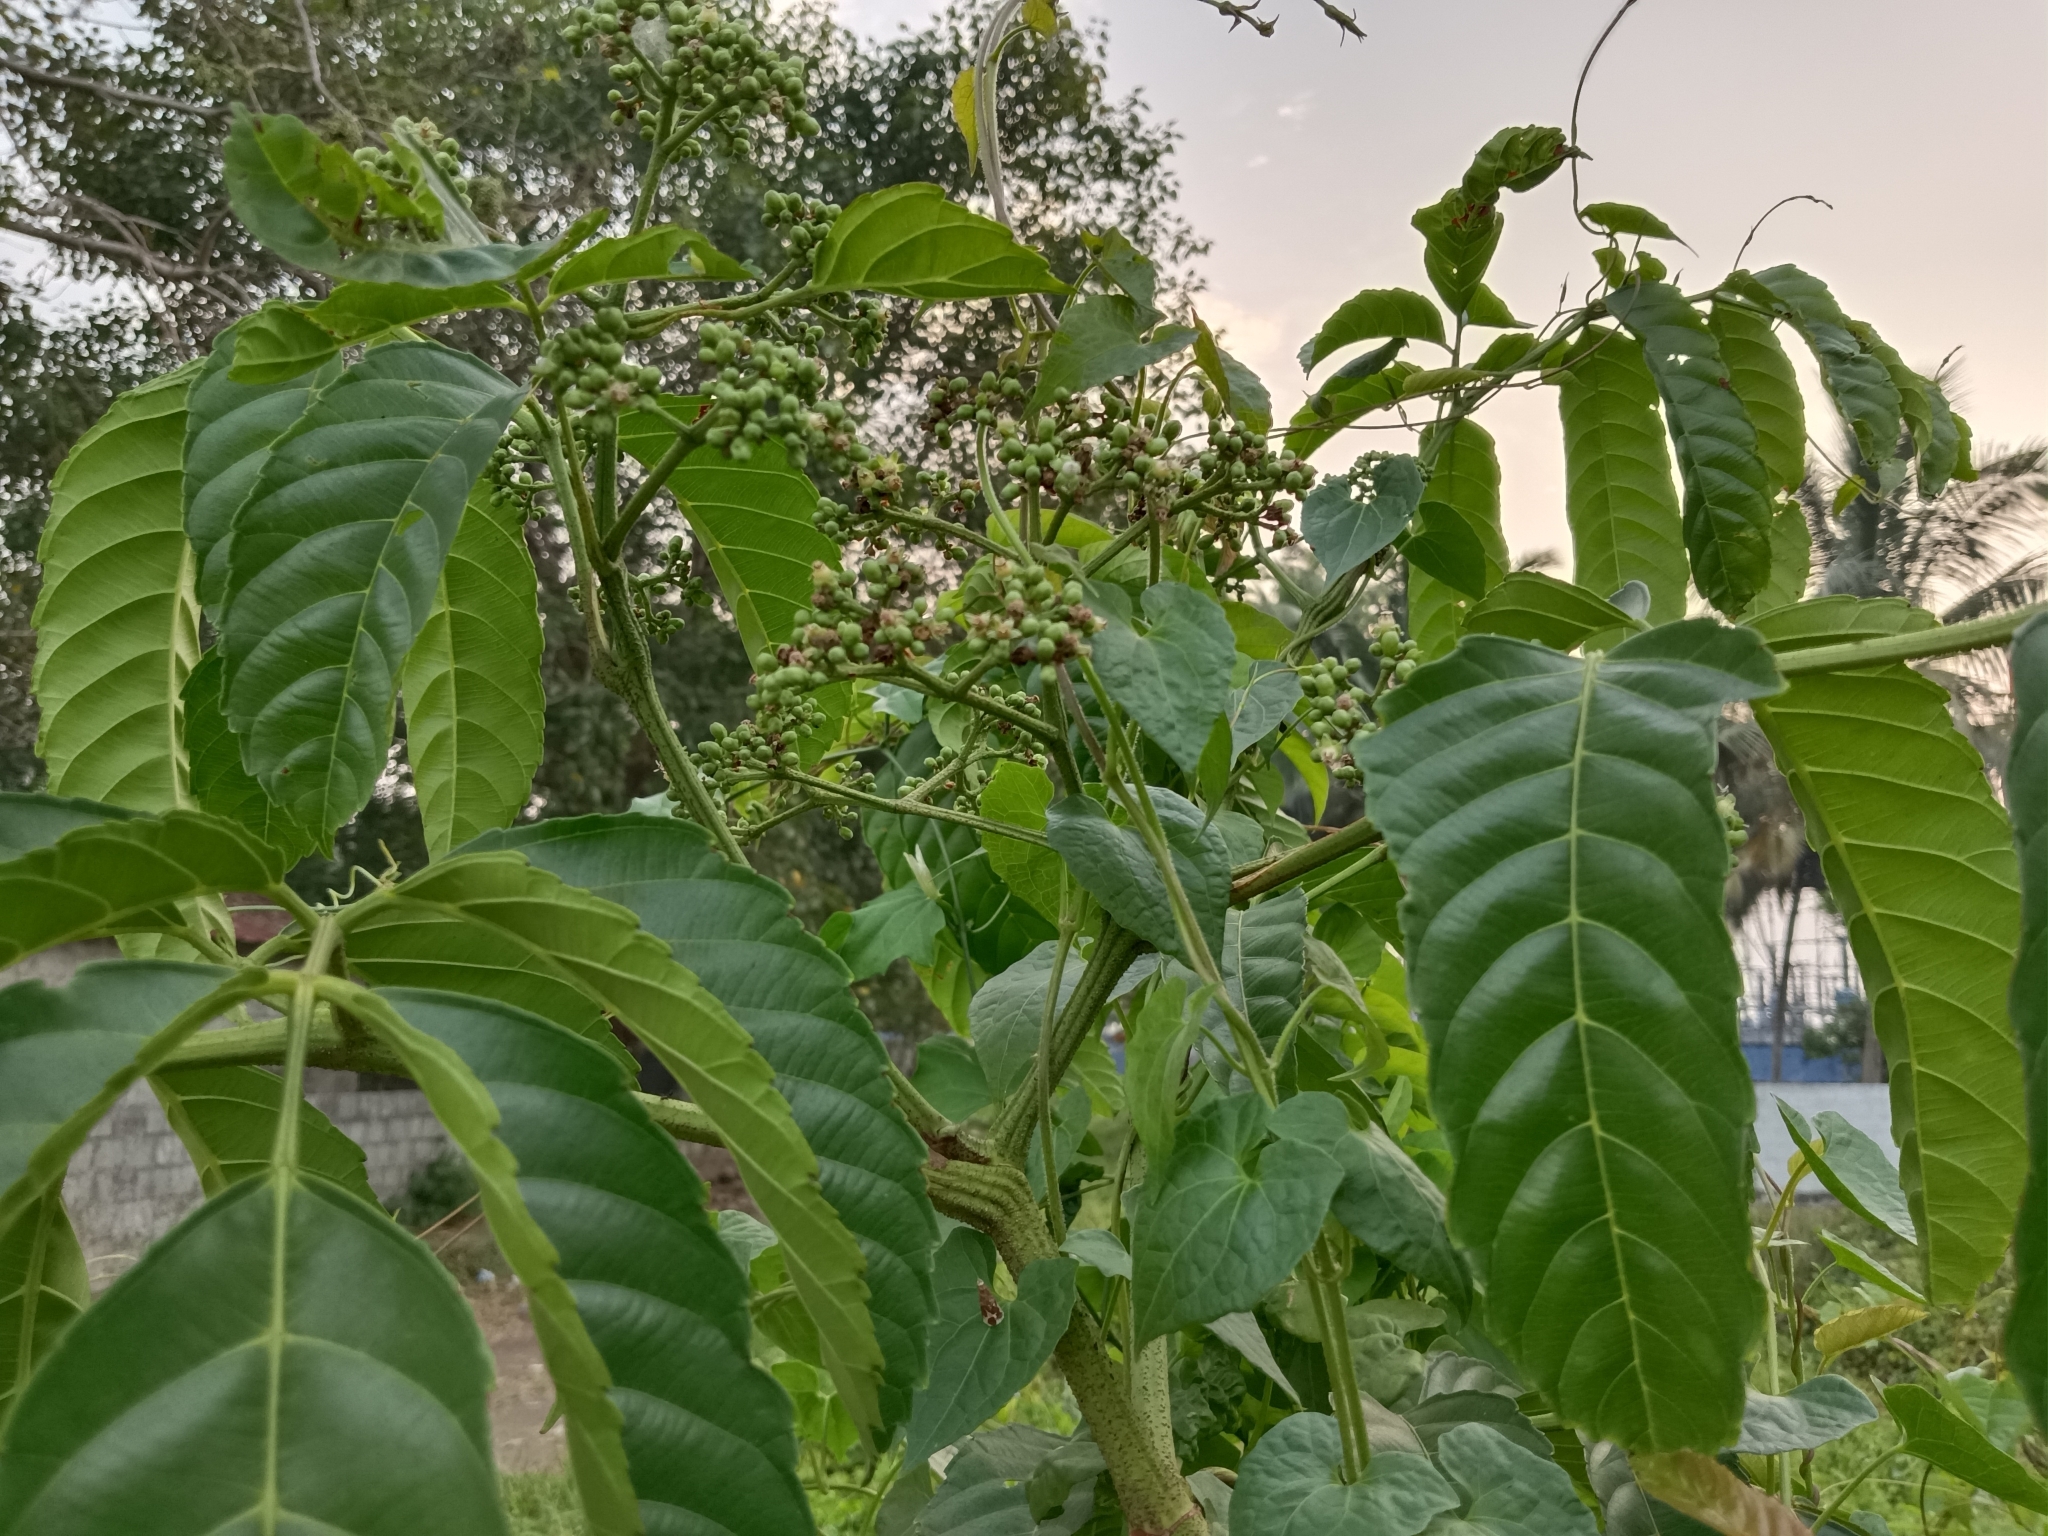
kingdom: Plantae
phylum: Tracheophyta
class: Magnoliopsida
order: Vitales
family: Vitaceae
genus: Leea
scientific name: Leea indica
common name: Bandicoot-berry
